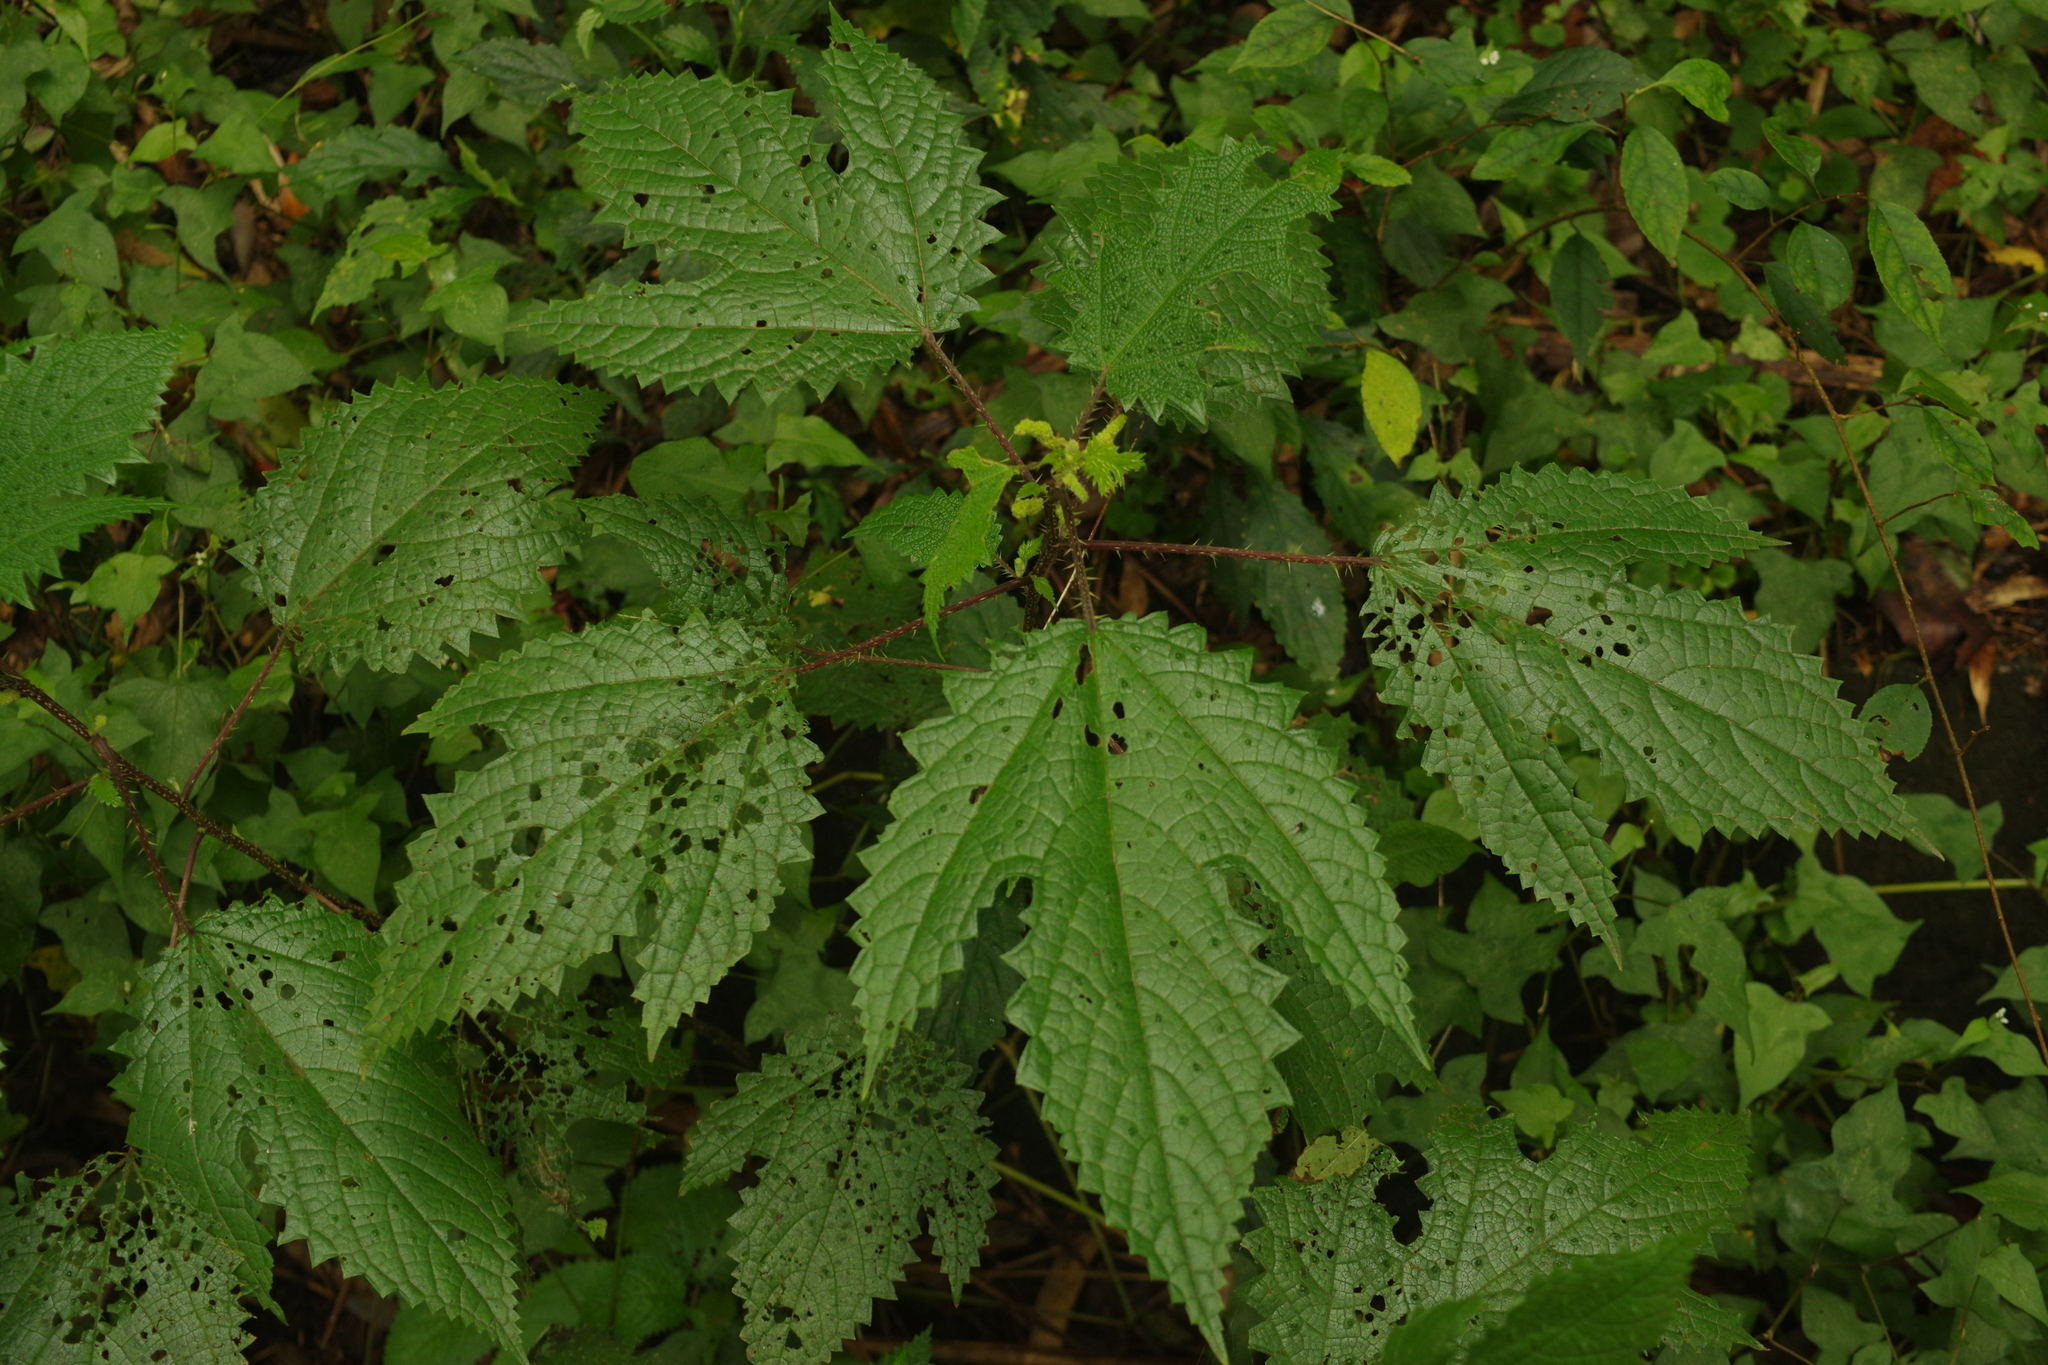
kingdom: Plantae
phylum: Tracheophyta
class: Magnoliopsida
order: Rosales
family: Urticaceae
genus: Girardinia
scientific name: Girardinia diversifolia
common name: Himalayan-nettle
